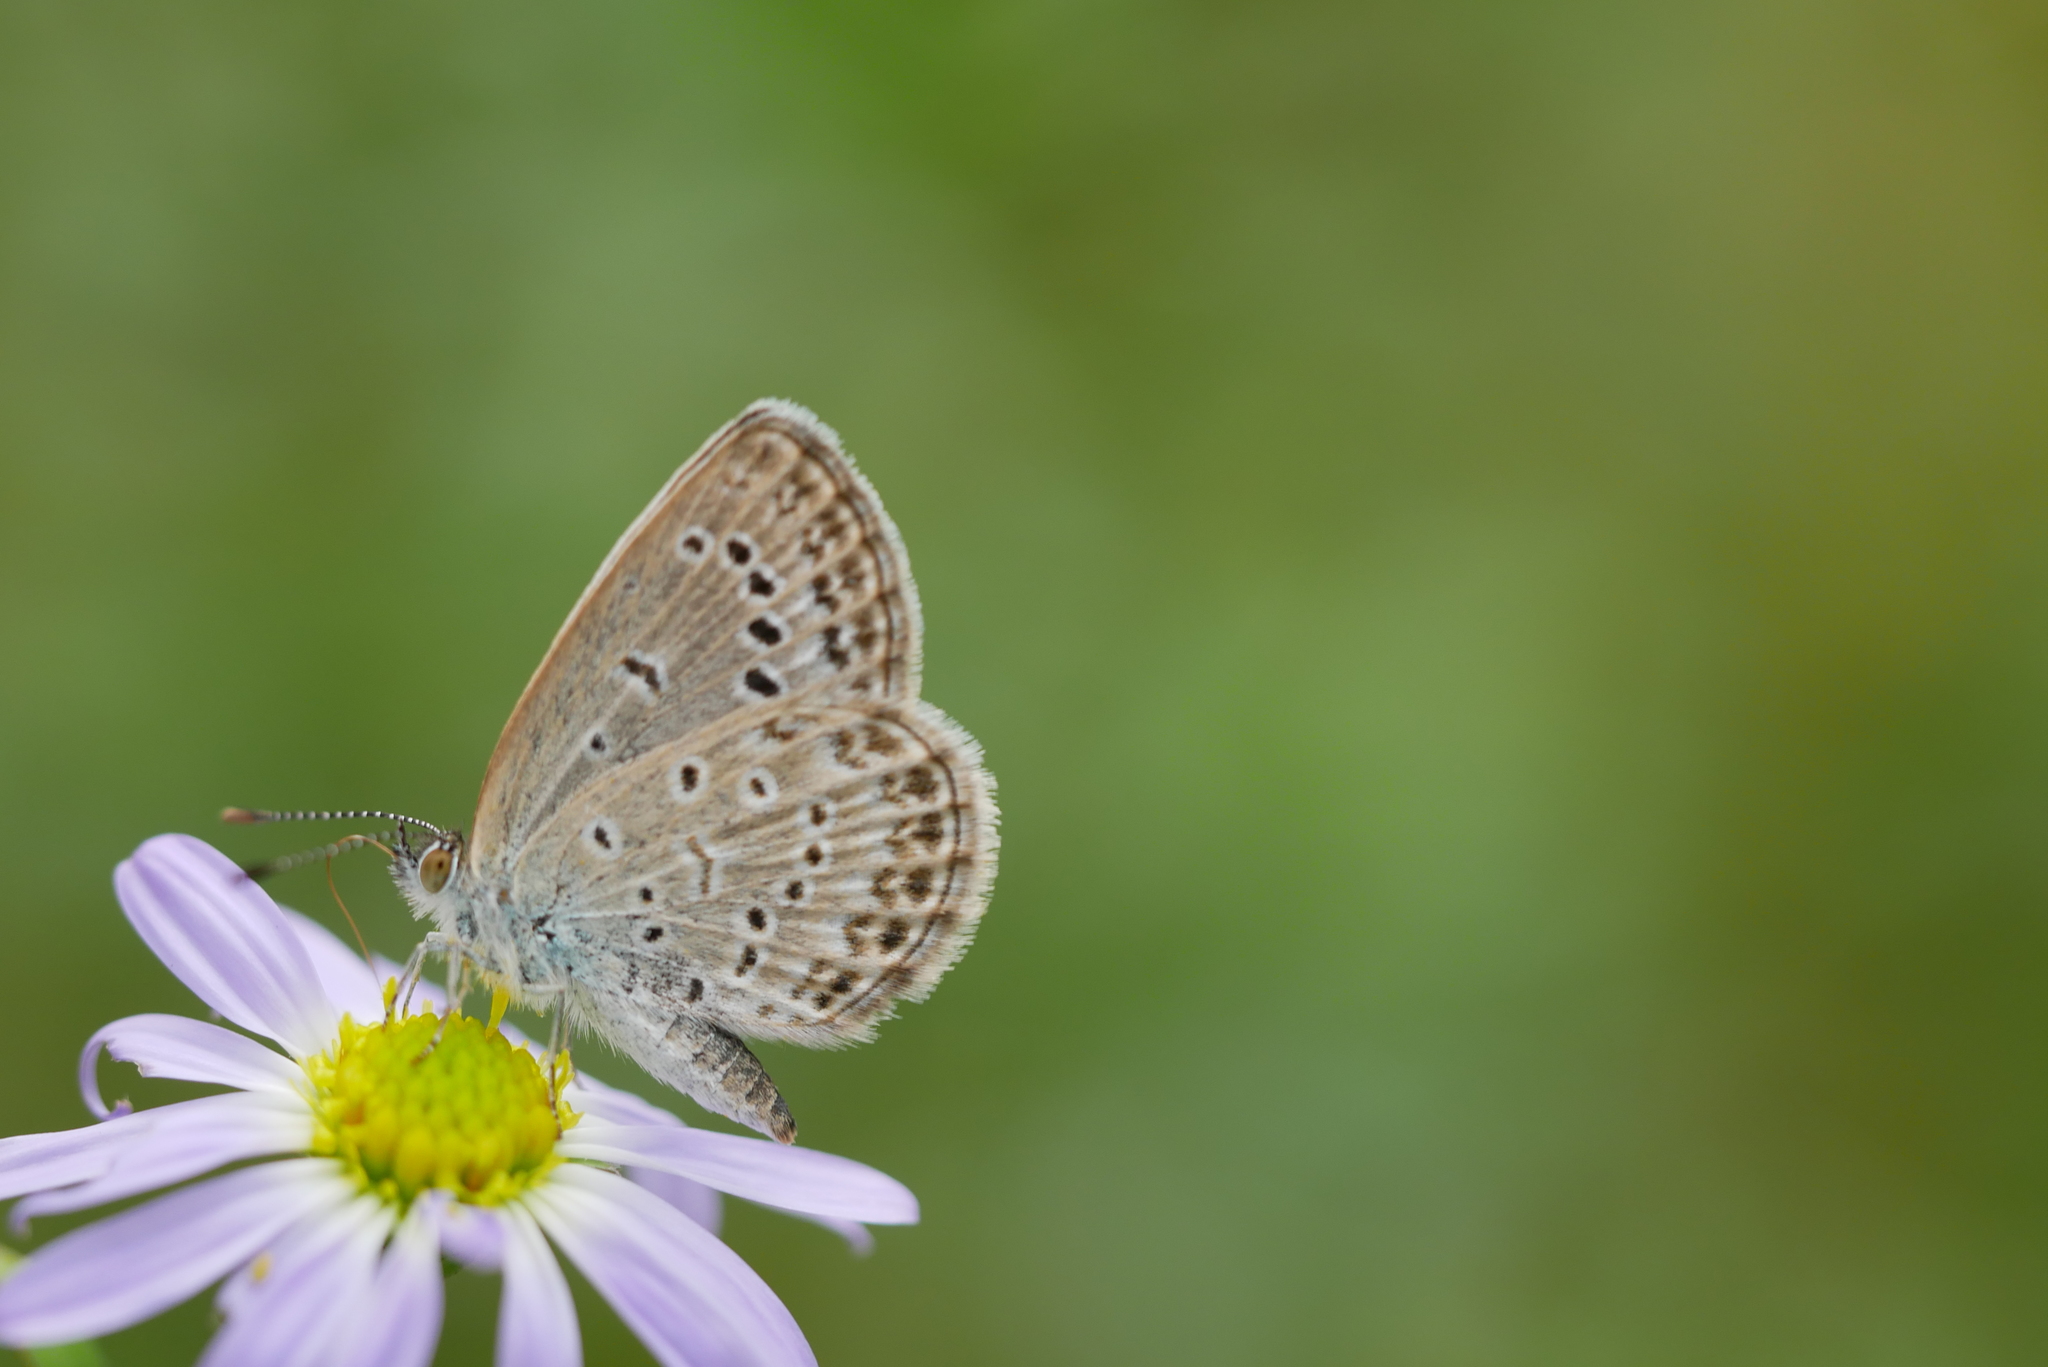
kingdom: Animalia
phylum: Arthropoda
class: Insecta
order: Lepidoptera
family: Lycaenidae
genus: Pseudozizeeria
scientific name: Pseudozizeeria maha
